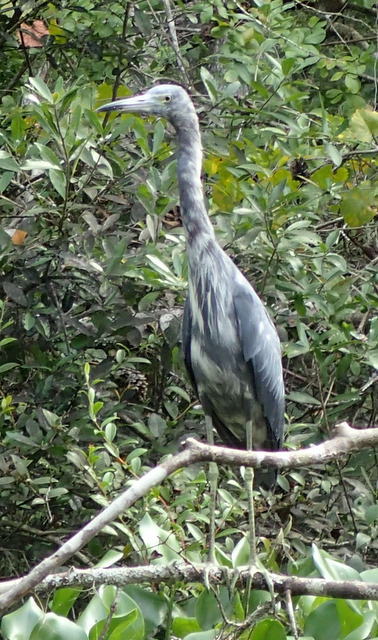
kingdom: Animalia
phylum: Chordata
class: Aves
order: Pelecaniformes
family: Ardeidae
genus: Egretta
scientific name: Egretta caerulea
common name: Little blue heron
